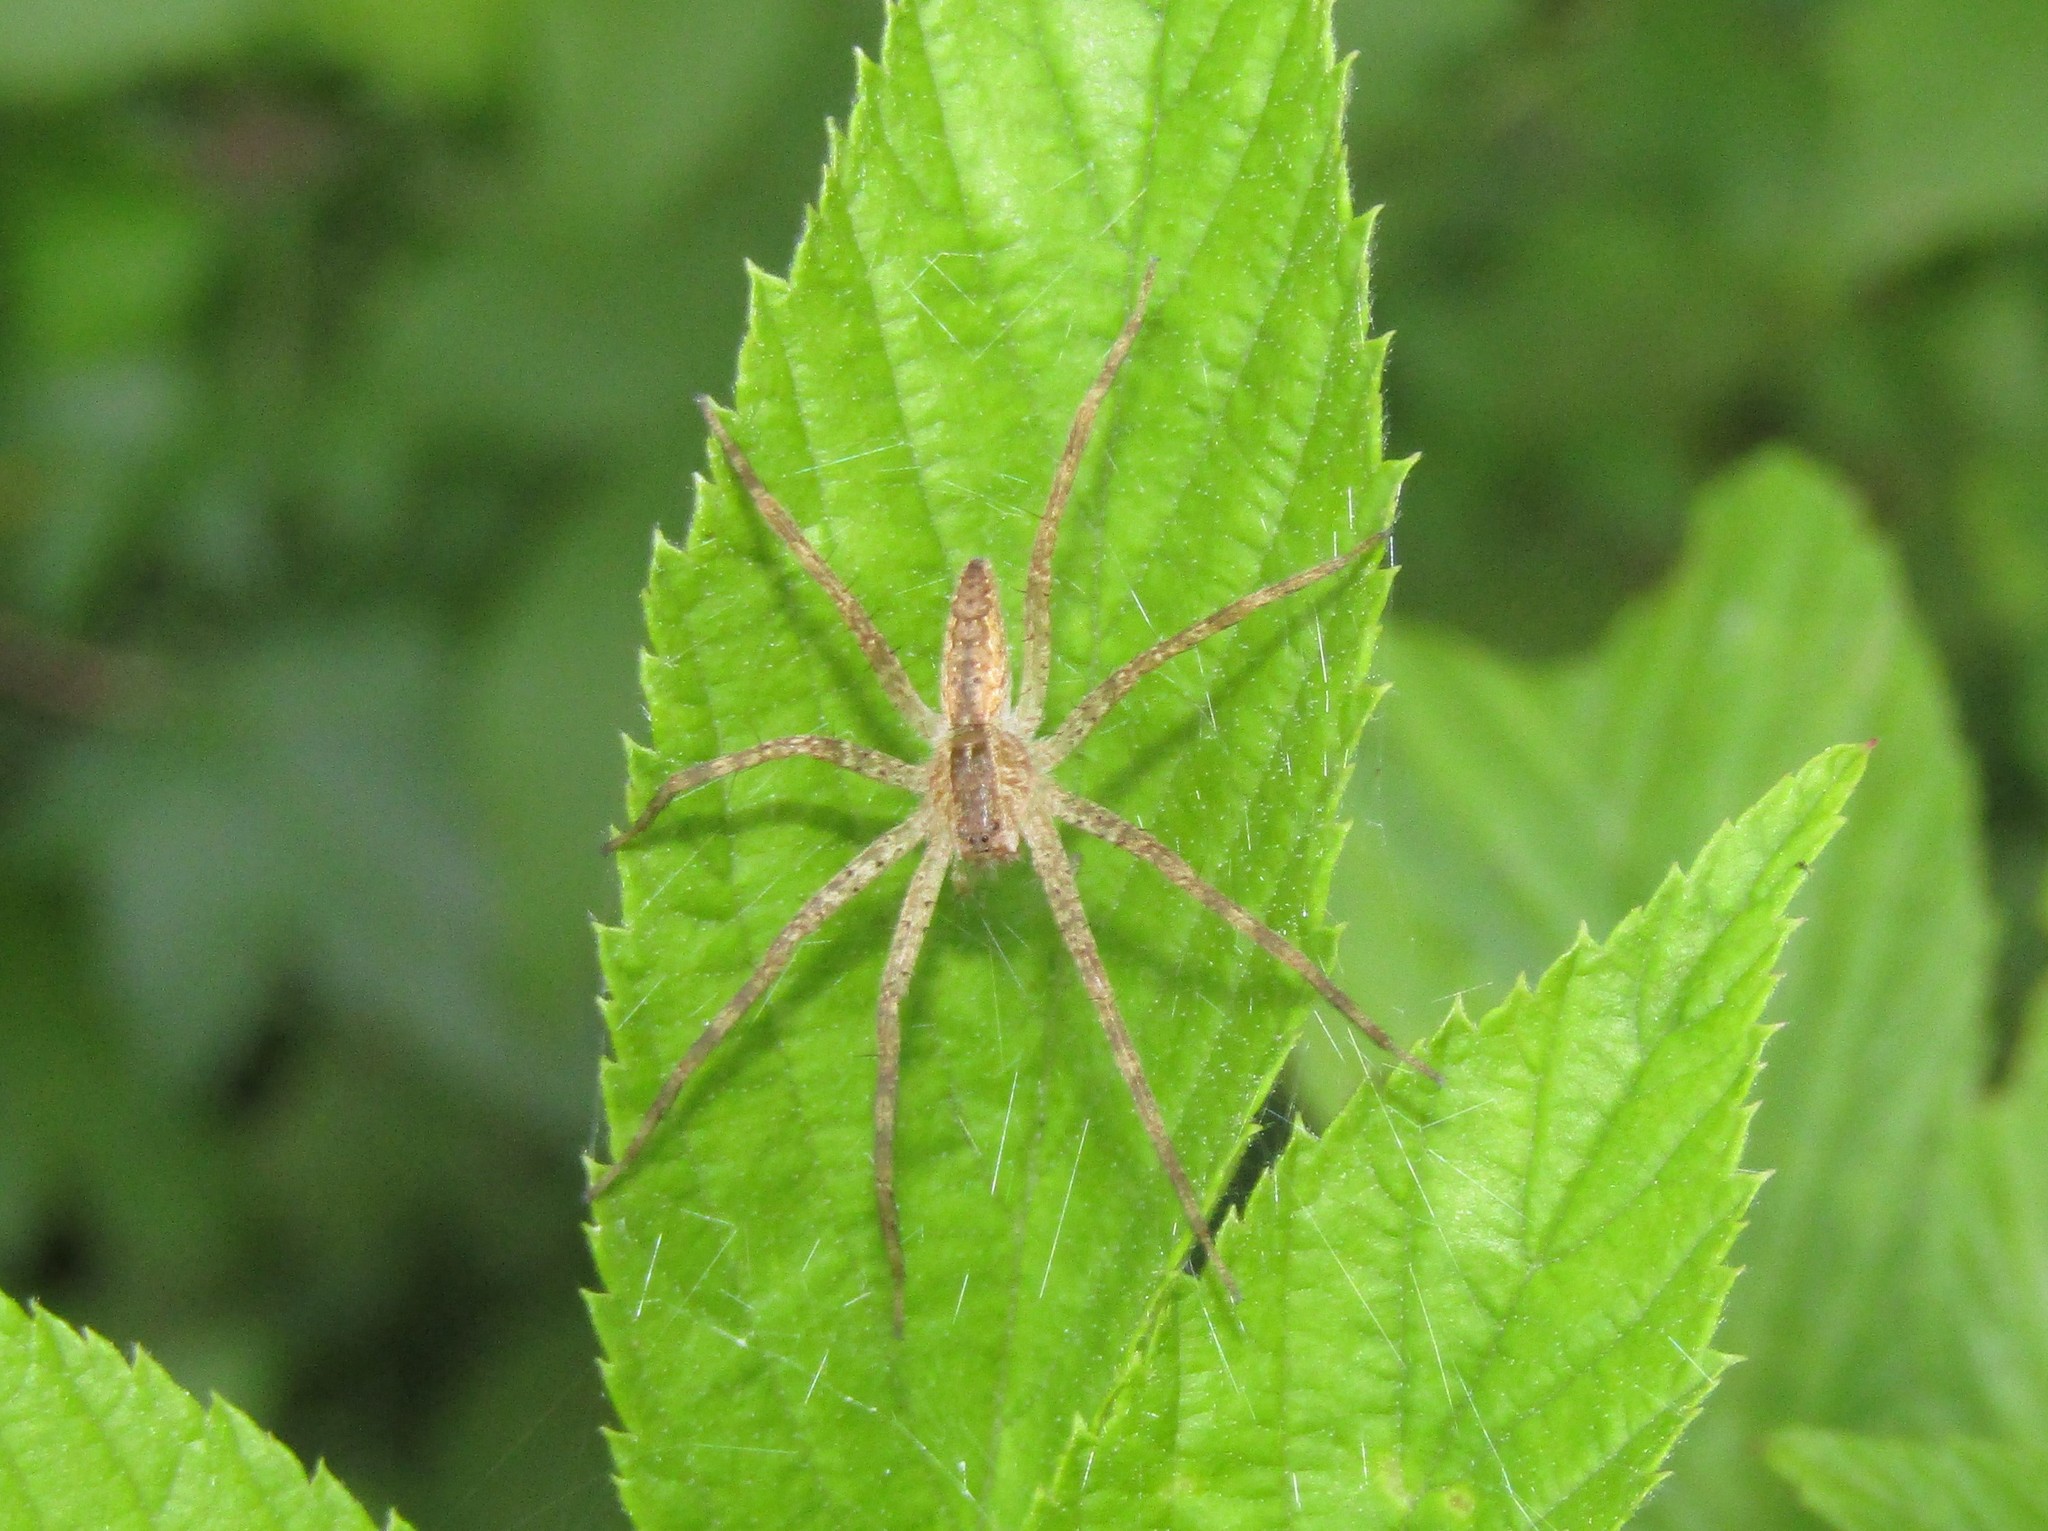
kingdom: Animalia
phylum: Arthropoda
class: Arachnida
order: Araneae
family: Pisauridae
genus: Pisaurina
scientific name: Pisaurina mira
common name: American nursery web spider
